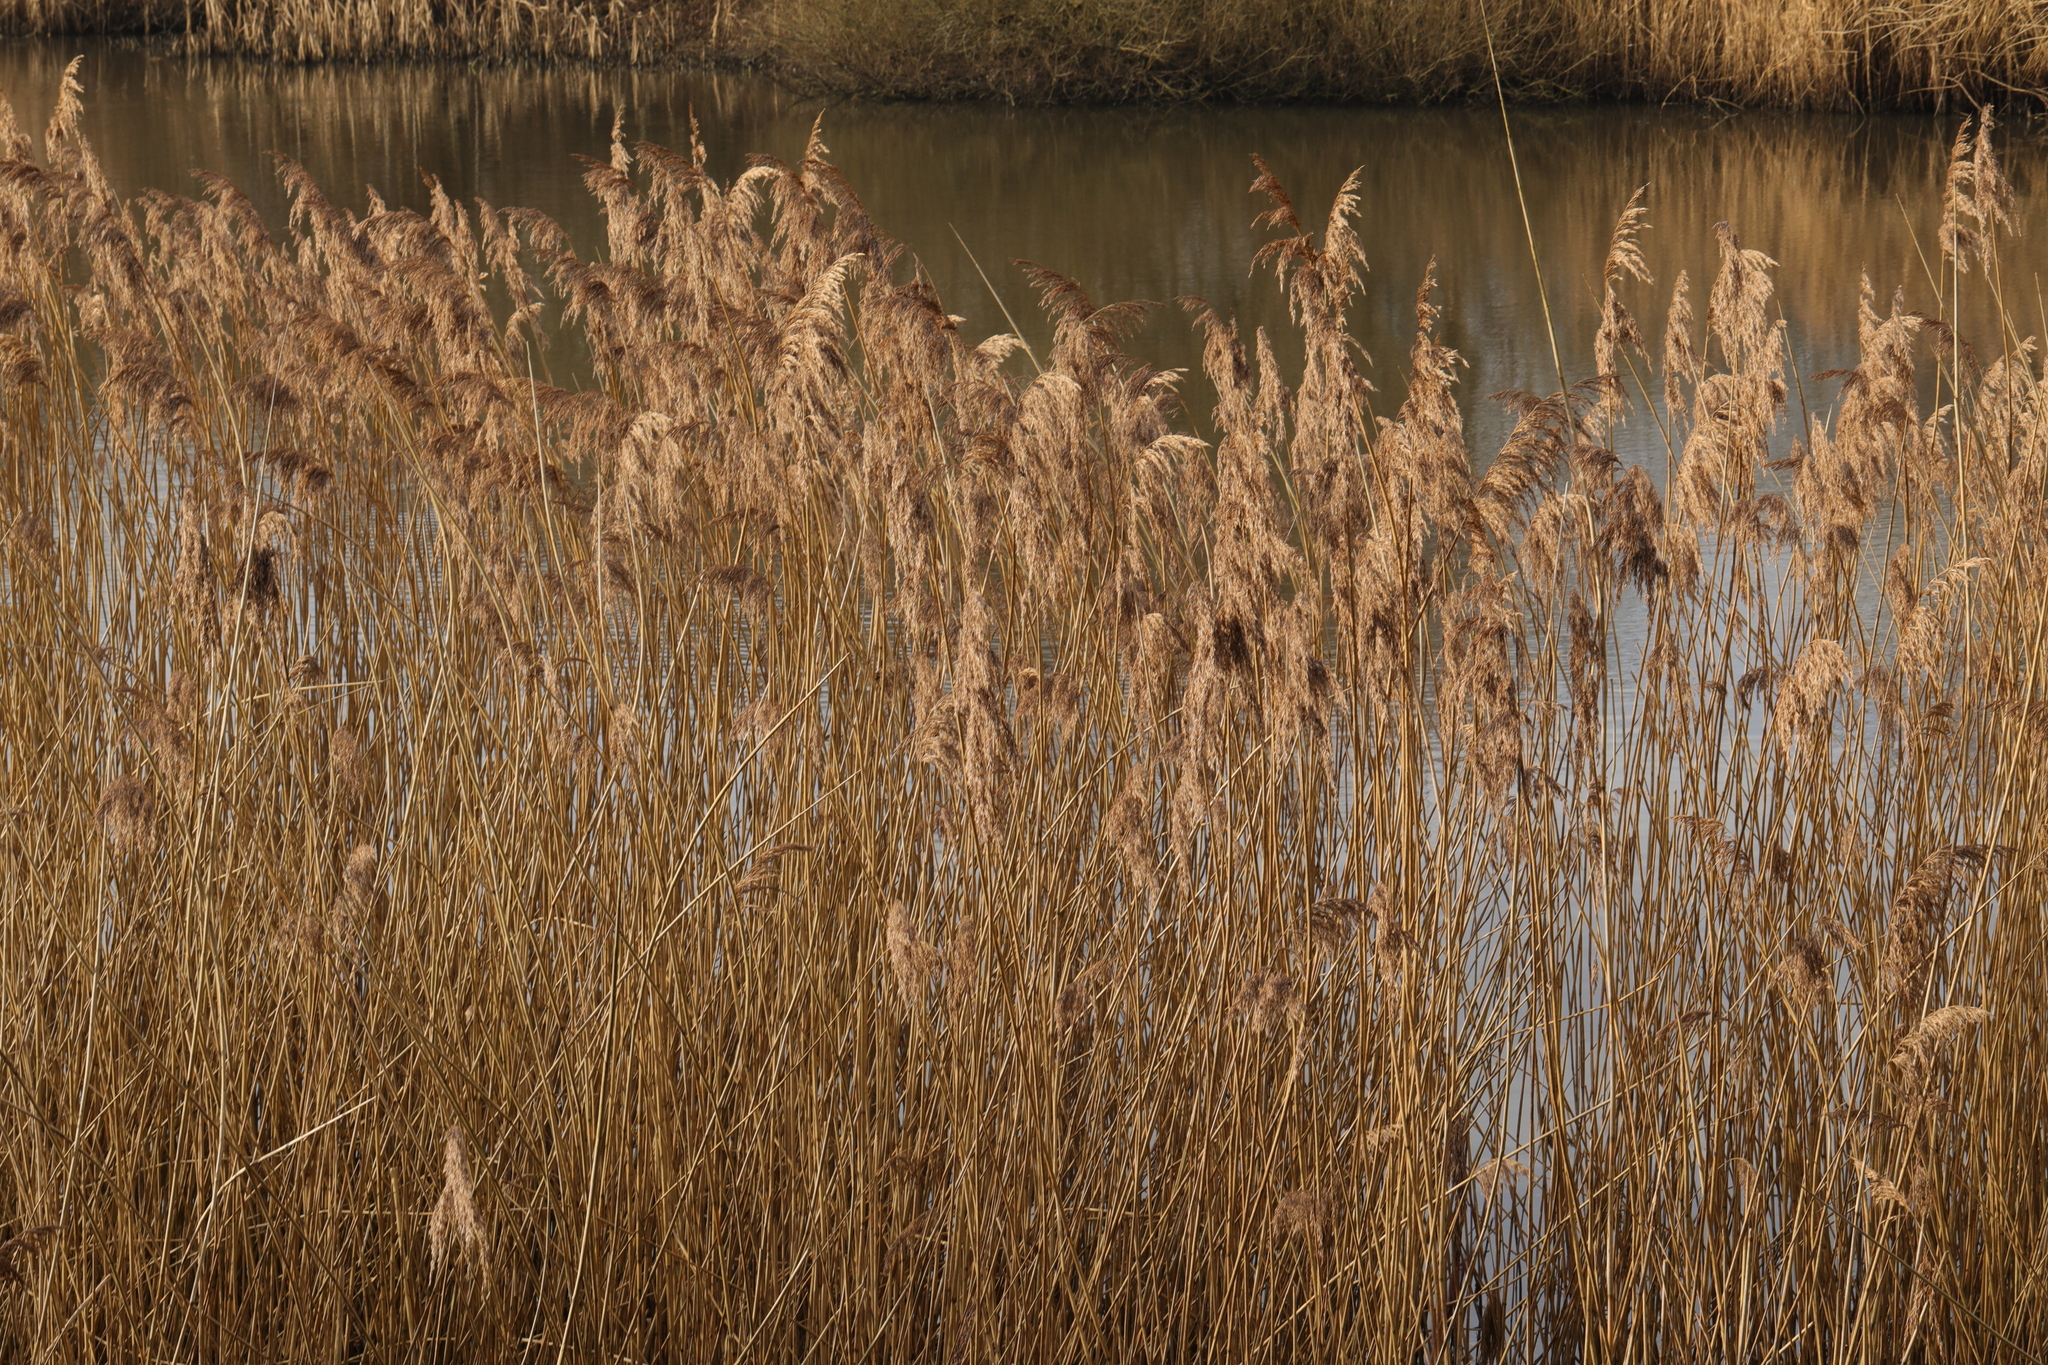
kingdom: Plantae
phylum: Tracheophyta
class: Liliopsida
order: Poales
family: Poaceae
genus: Phragmites
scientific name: Phragmites australis
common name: Common reed
